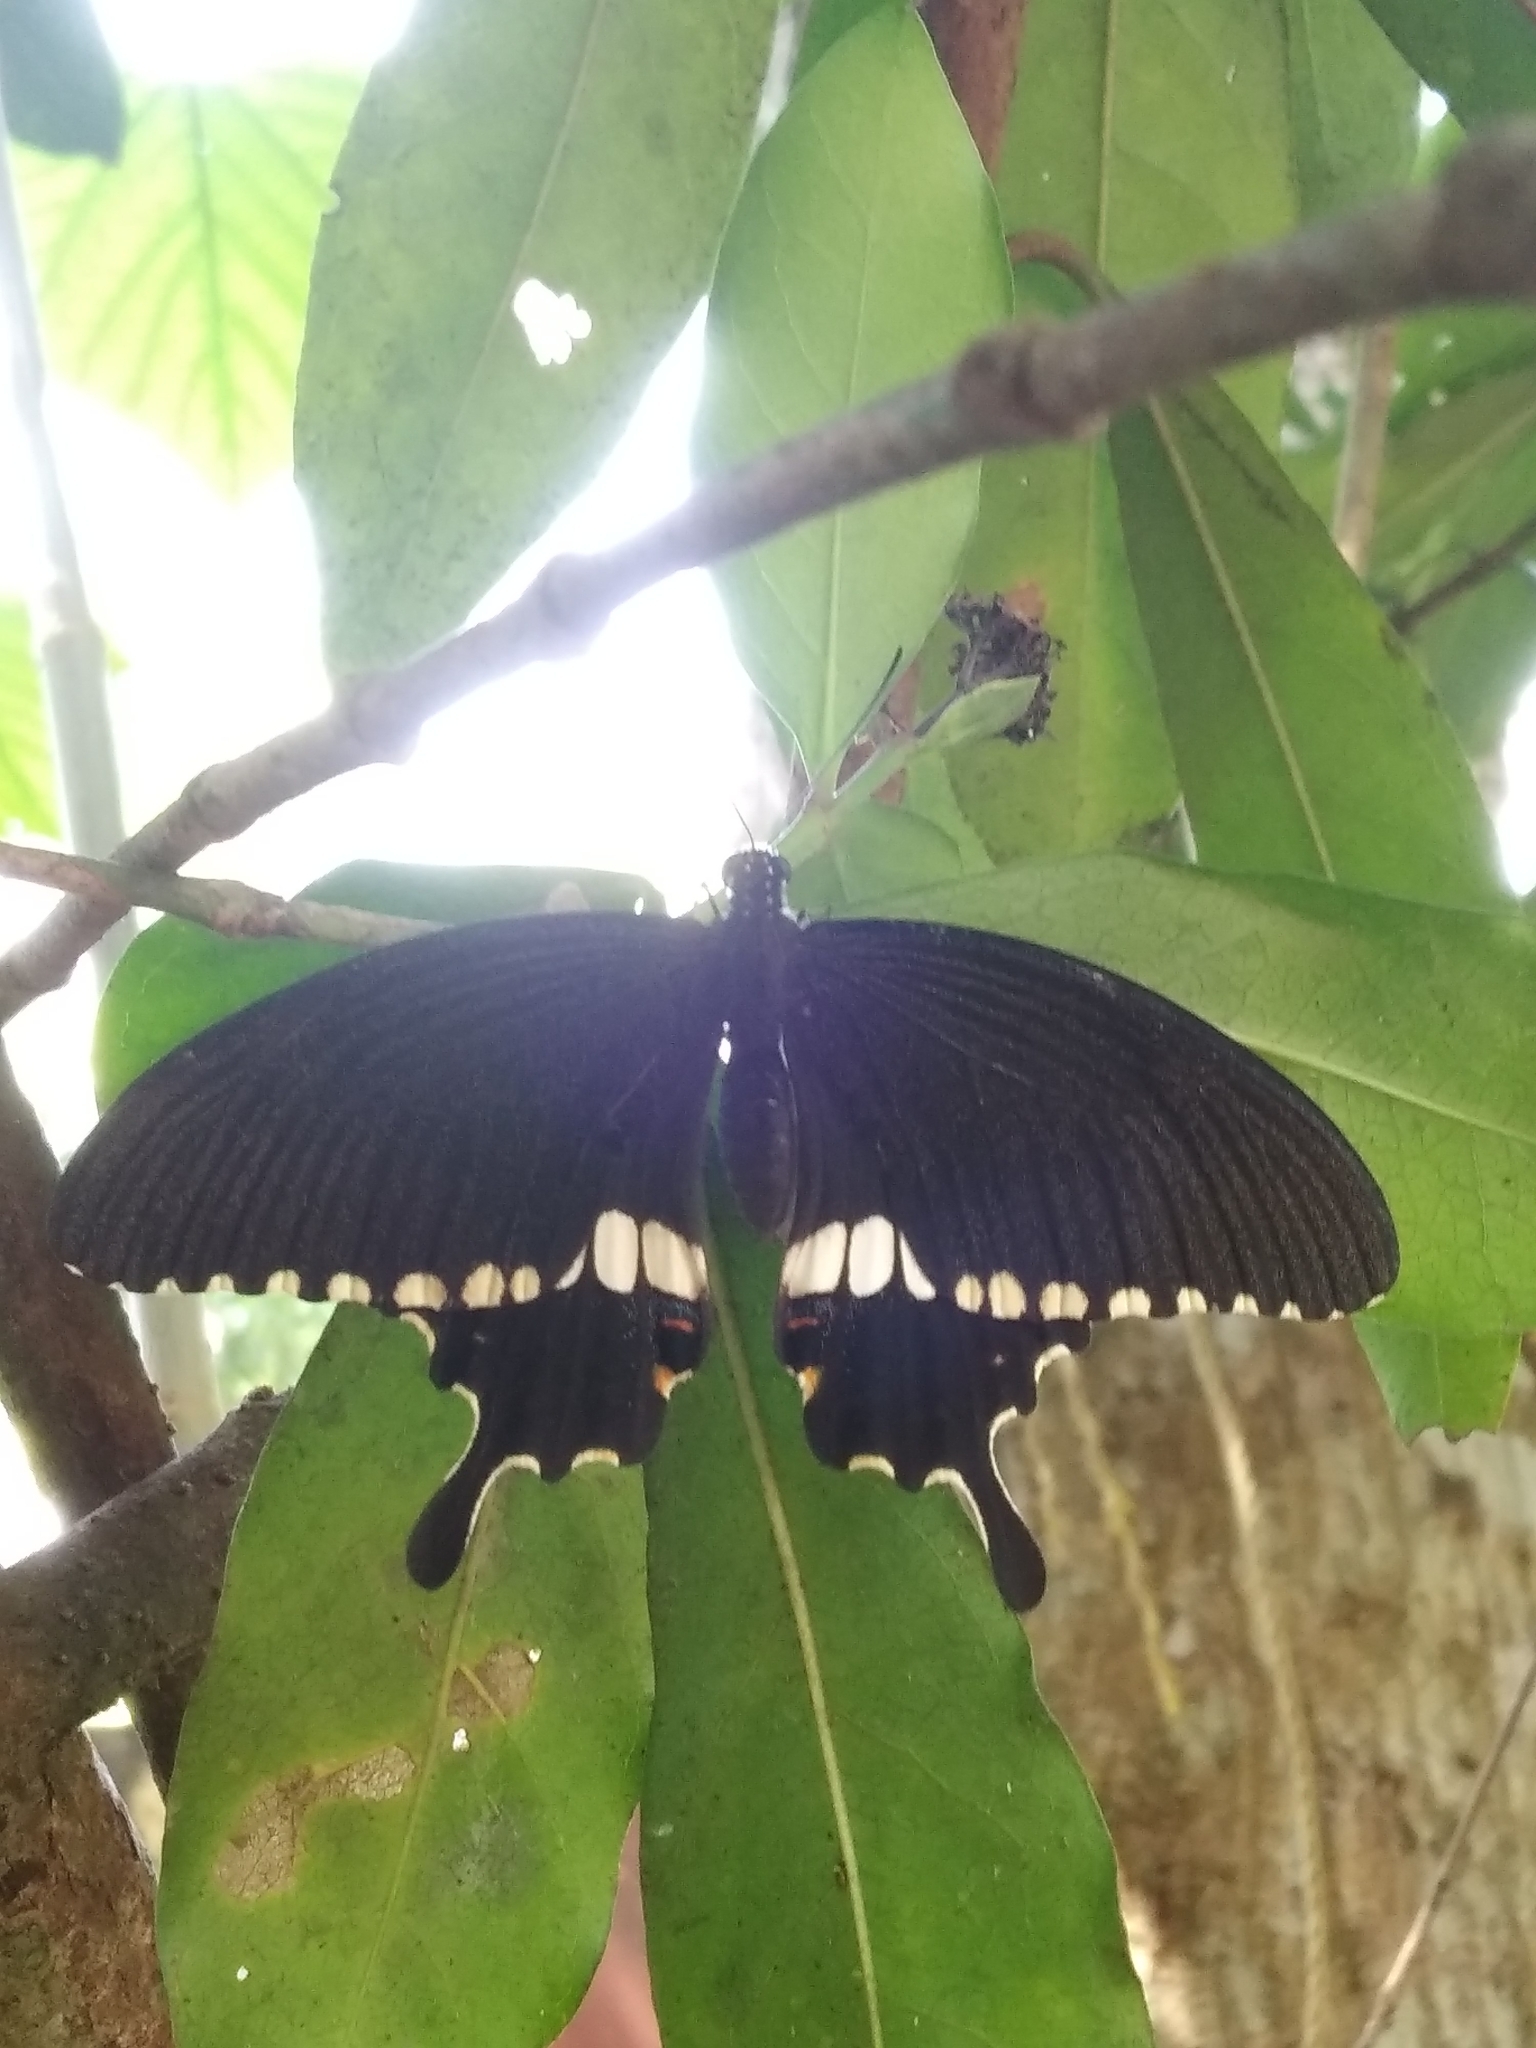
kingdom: Animalia
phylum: Arthropoda
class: Insecta
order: Lepidoptera
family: Papilionidae
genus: Papilio
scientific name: Papilio polytes
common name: Common mormon
